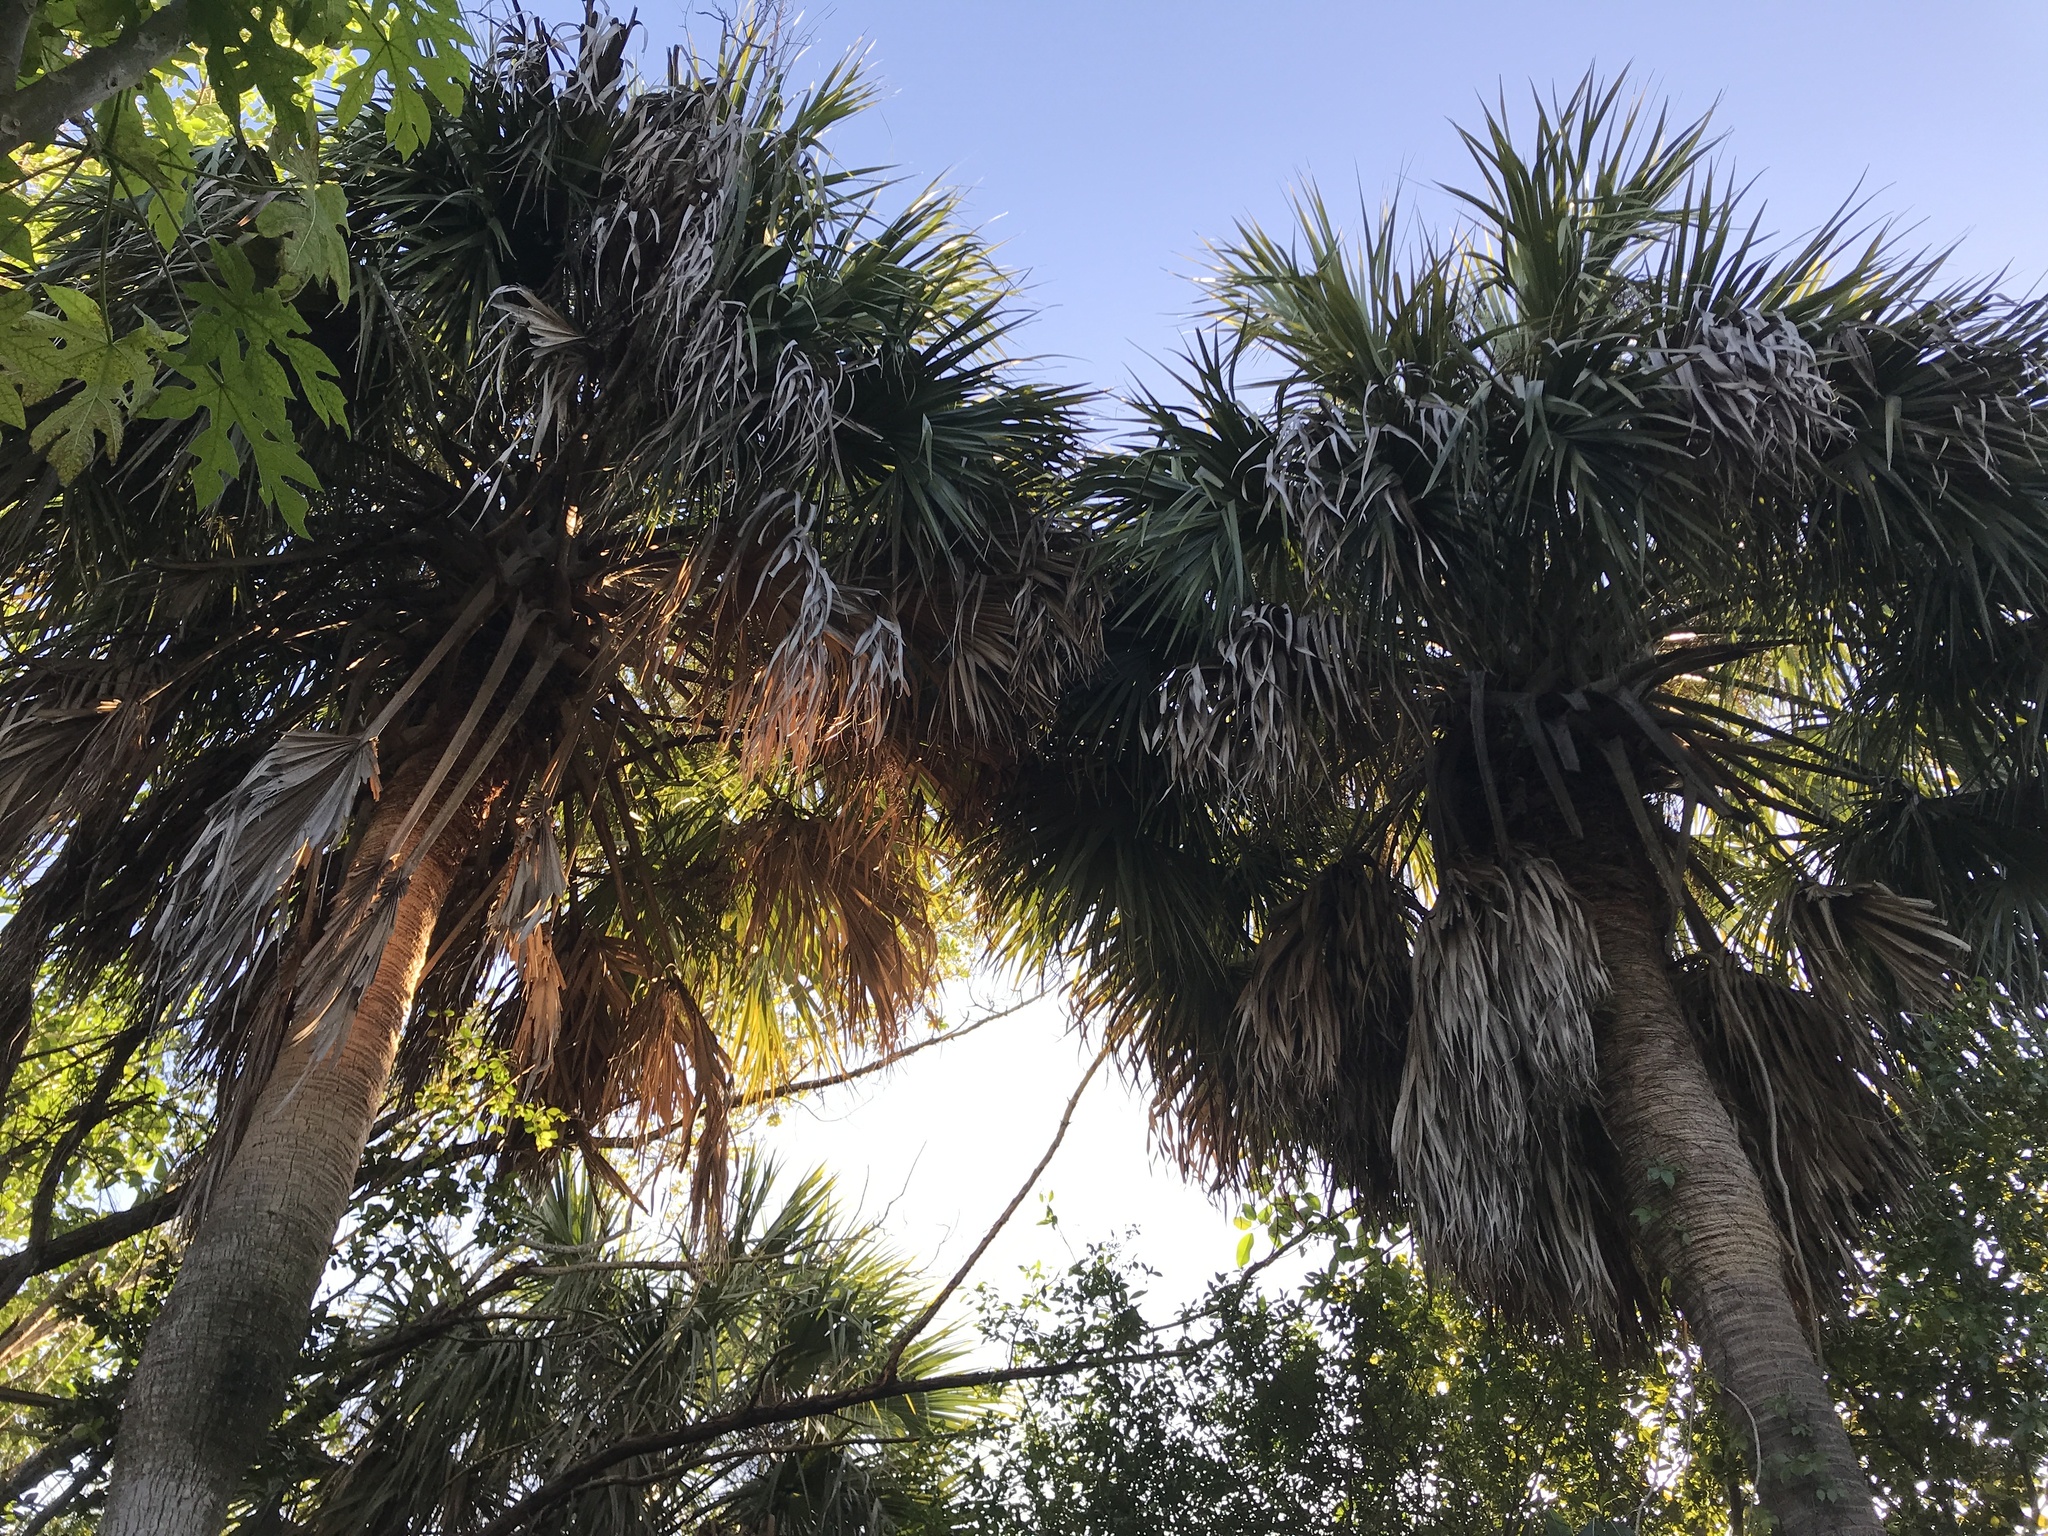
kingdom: Plantae
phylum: Tracheophyta
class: Liliopsida
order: Arecales
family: Arecaceae
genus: Sabal
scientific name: Sabal palmetto
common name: Blue palmetto
